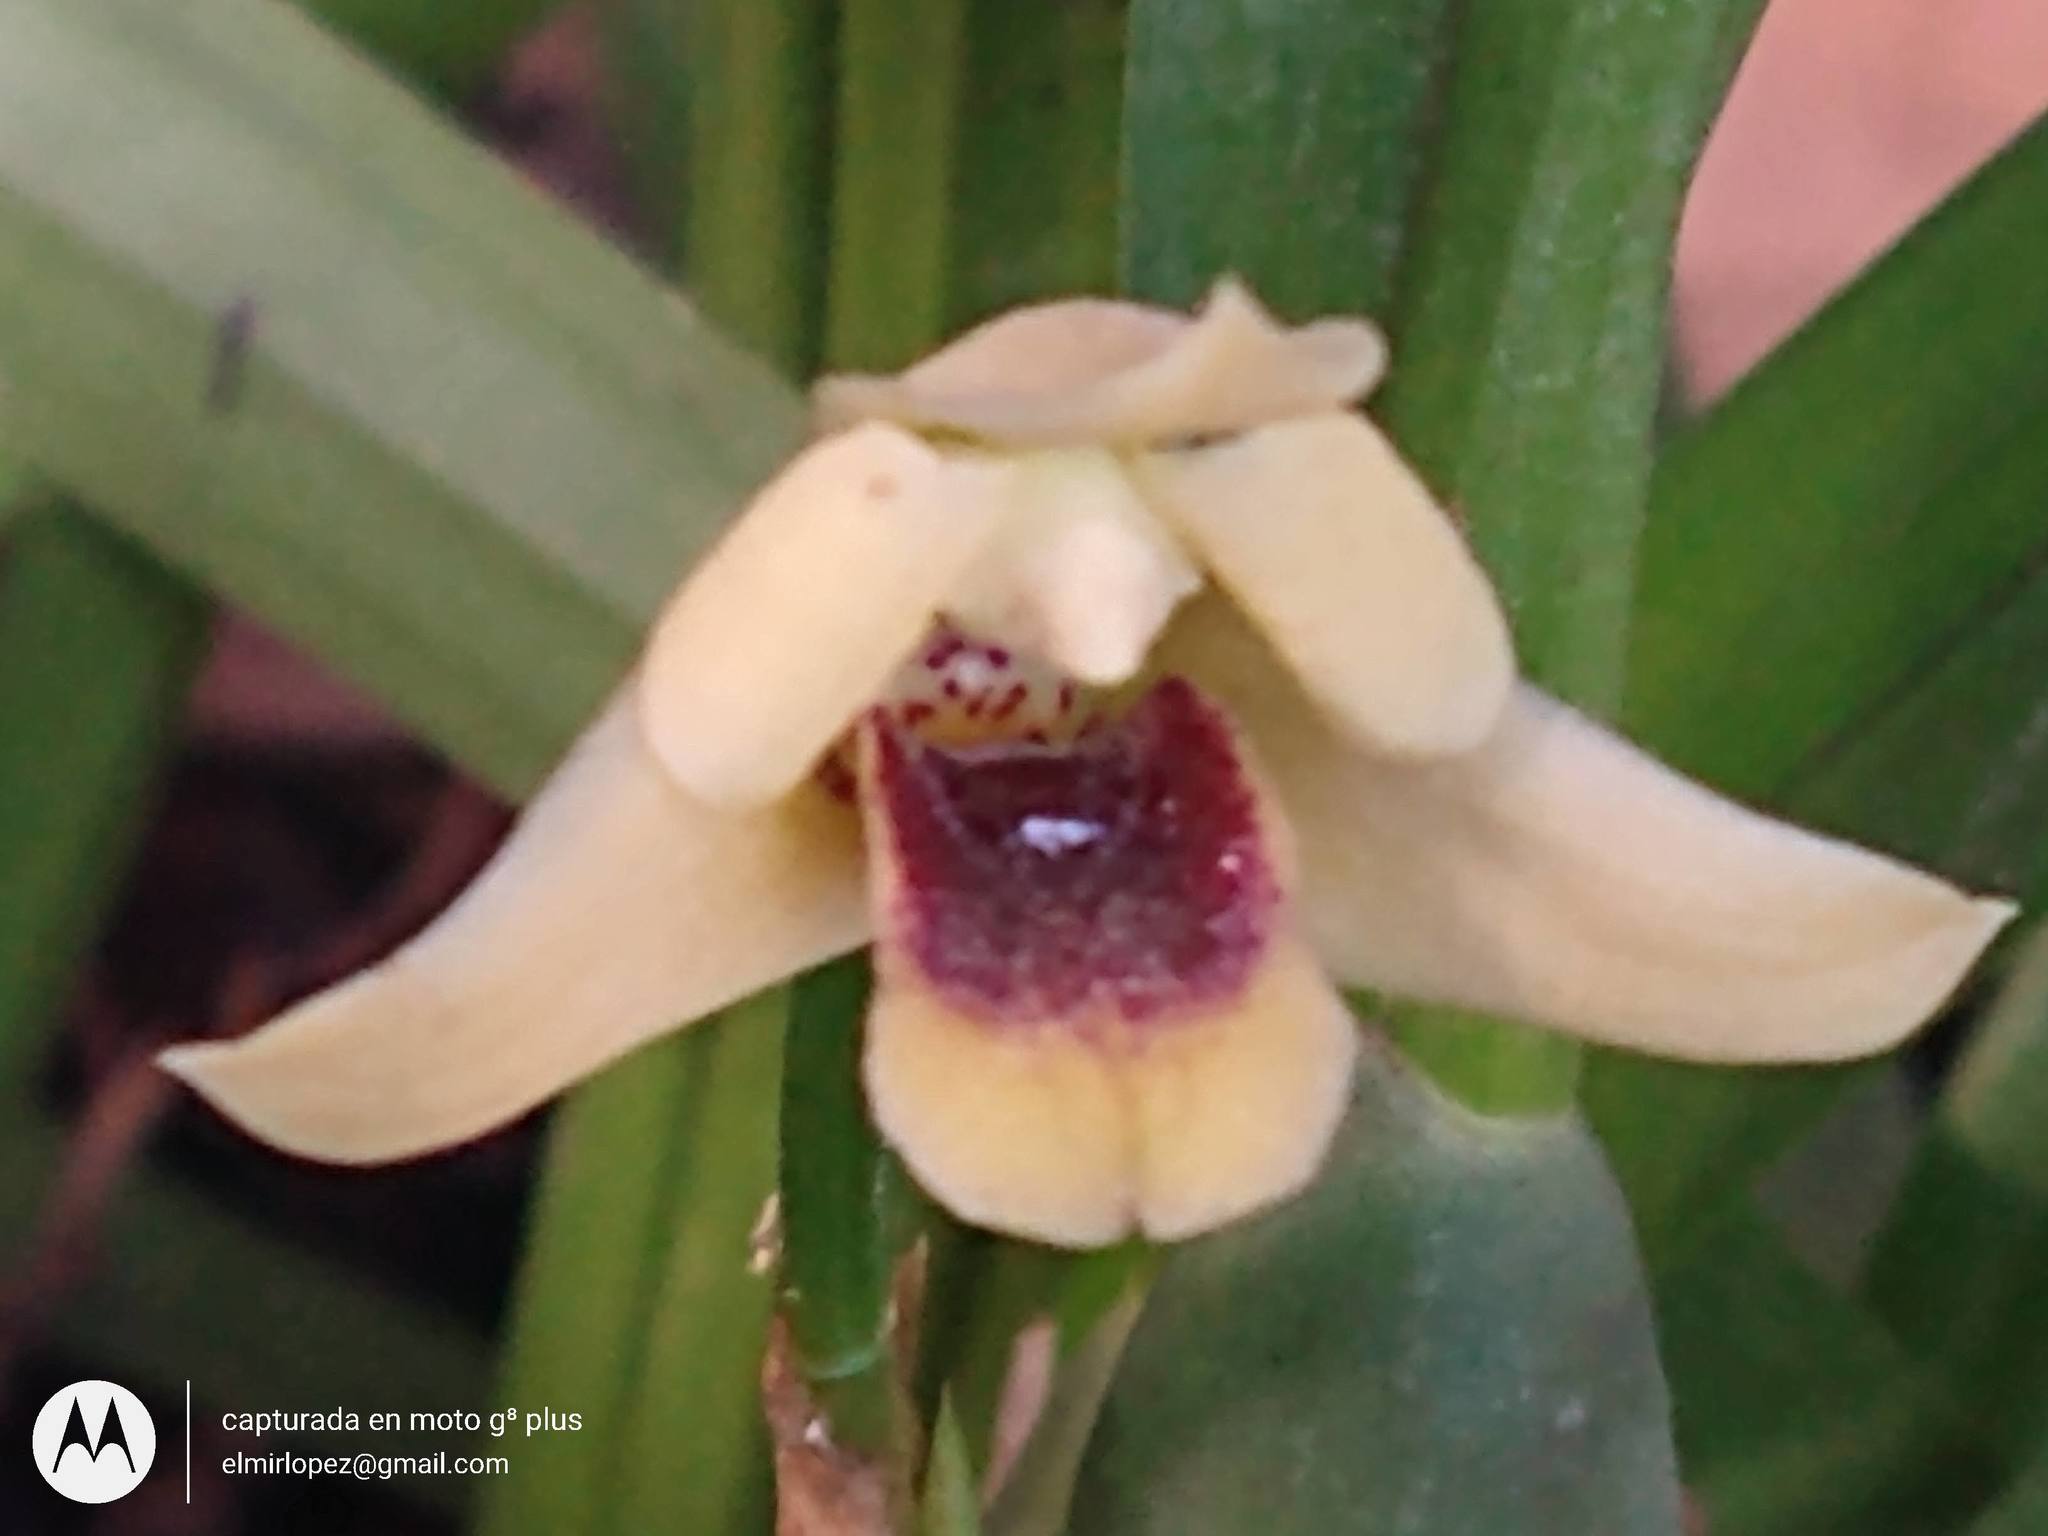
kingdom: Plantae
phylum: Tracheophyta
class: Liliopsida
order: Asparagales
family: Orchidaceae
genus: Maxillaria
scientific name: Maxillaria variabilis
